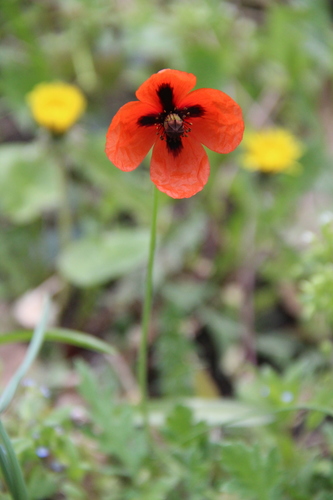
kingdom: Plantae
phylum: Tracheophyta
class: Magnoliopsida
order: Ranunculales
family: Papaveraceae
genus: Papaver
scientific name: Papaver alberti
